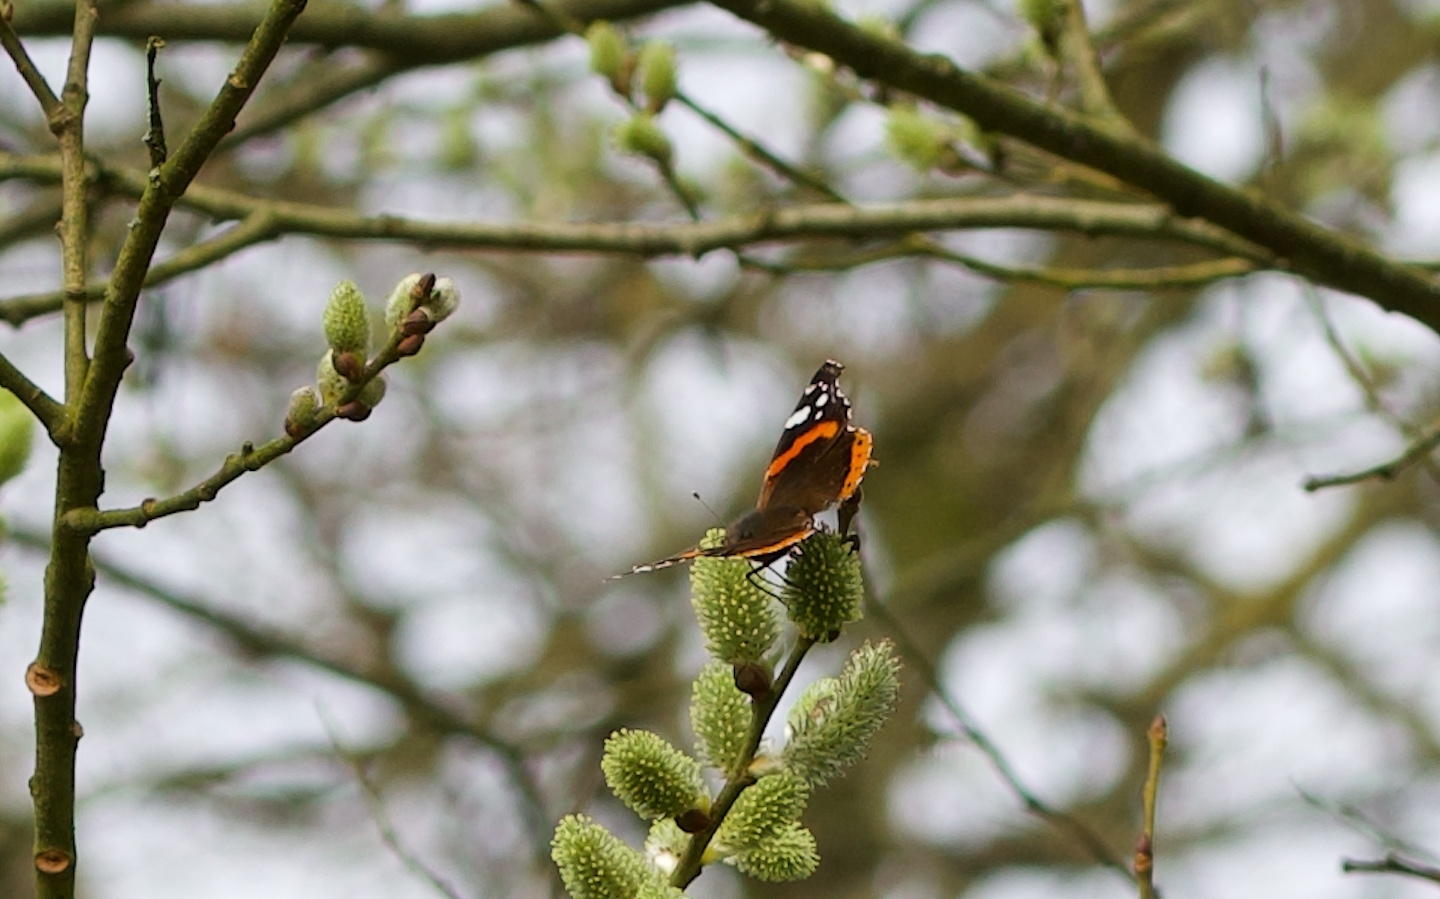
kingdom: Animalia
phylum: Arthropoda
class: Insecta
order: Lepidoptera
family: Nymphalidae
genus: Vanessa
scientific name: Vanessa atalanta
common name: Red admiral
